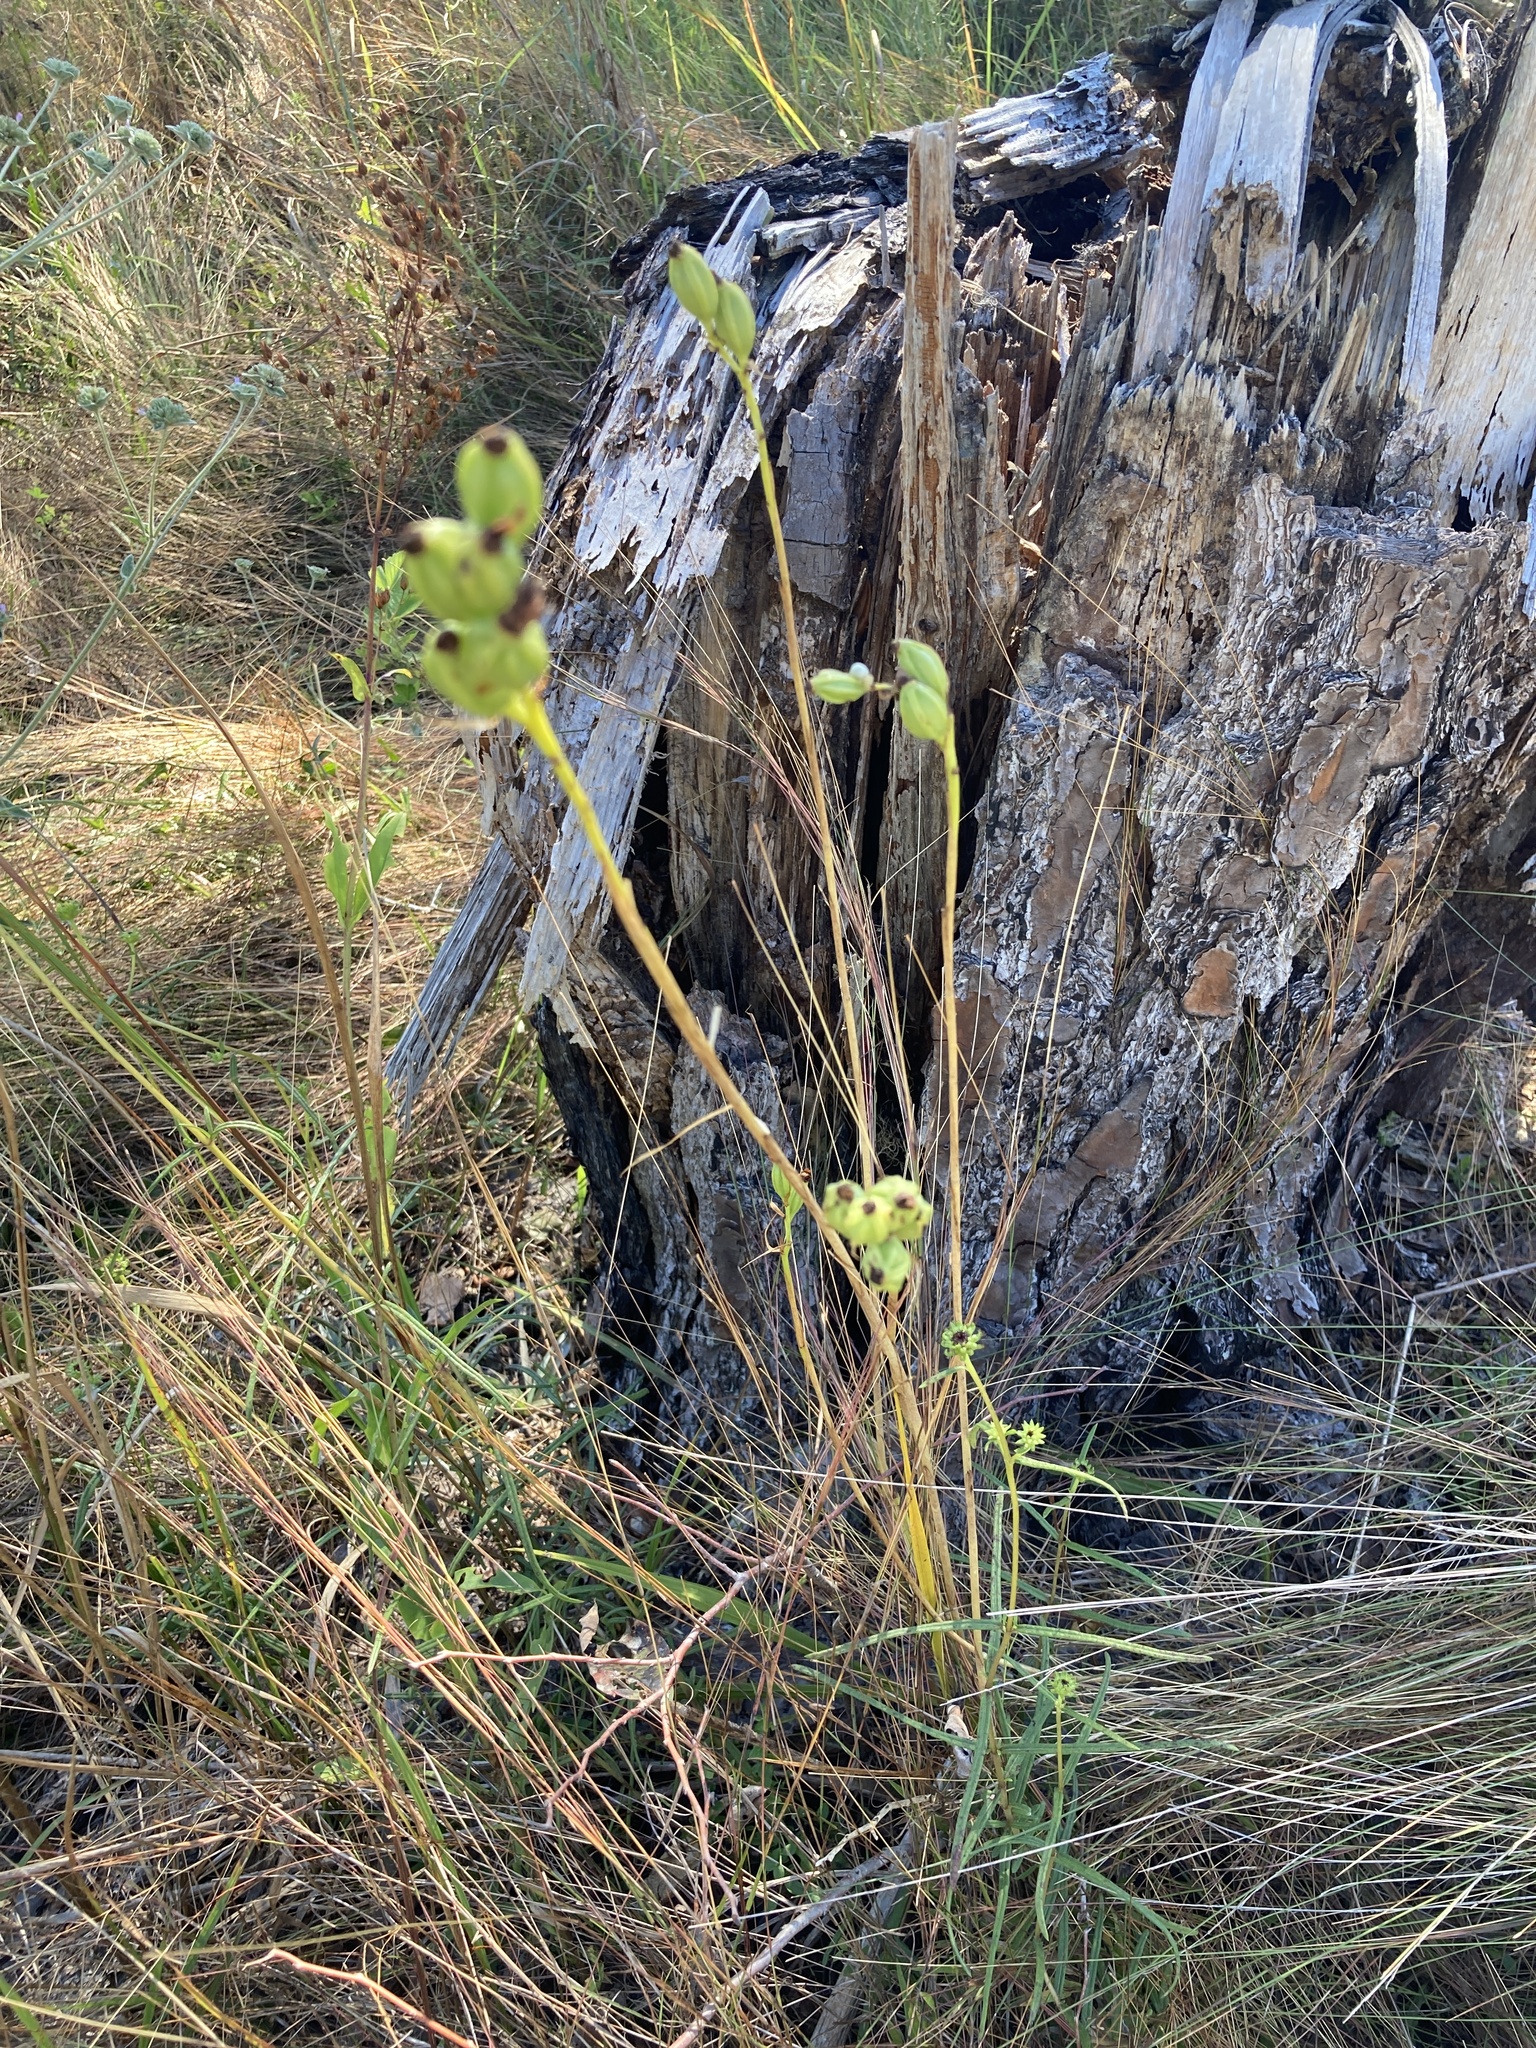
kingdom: Plantae
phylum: Tracheophyta
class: Liliopsida
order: Asparagales
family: Orchidaceae
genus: Eulophia
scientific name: Eulophia ecristata
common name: Giant orchid
